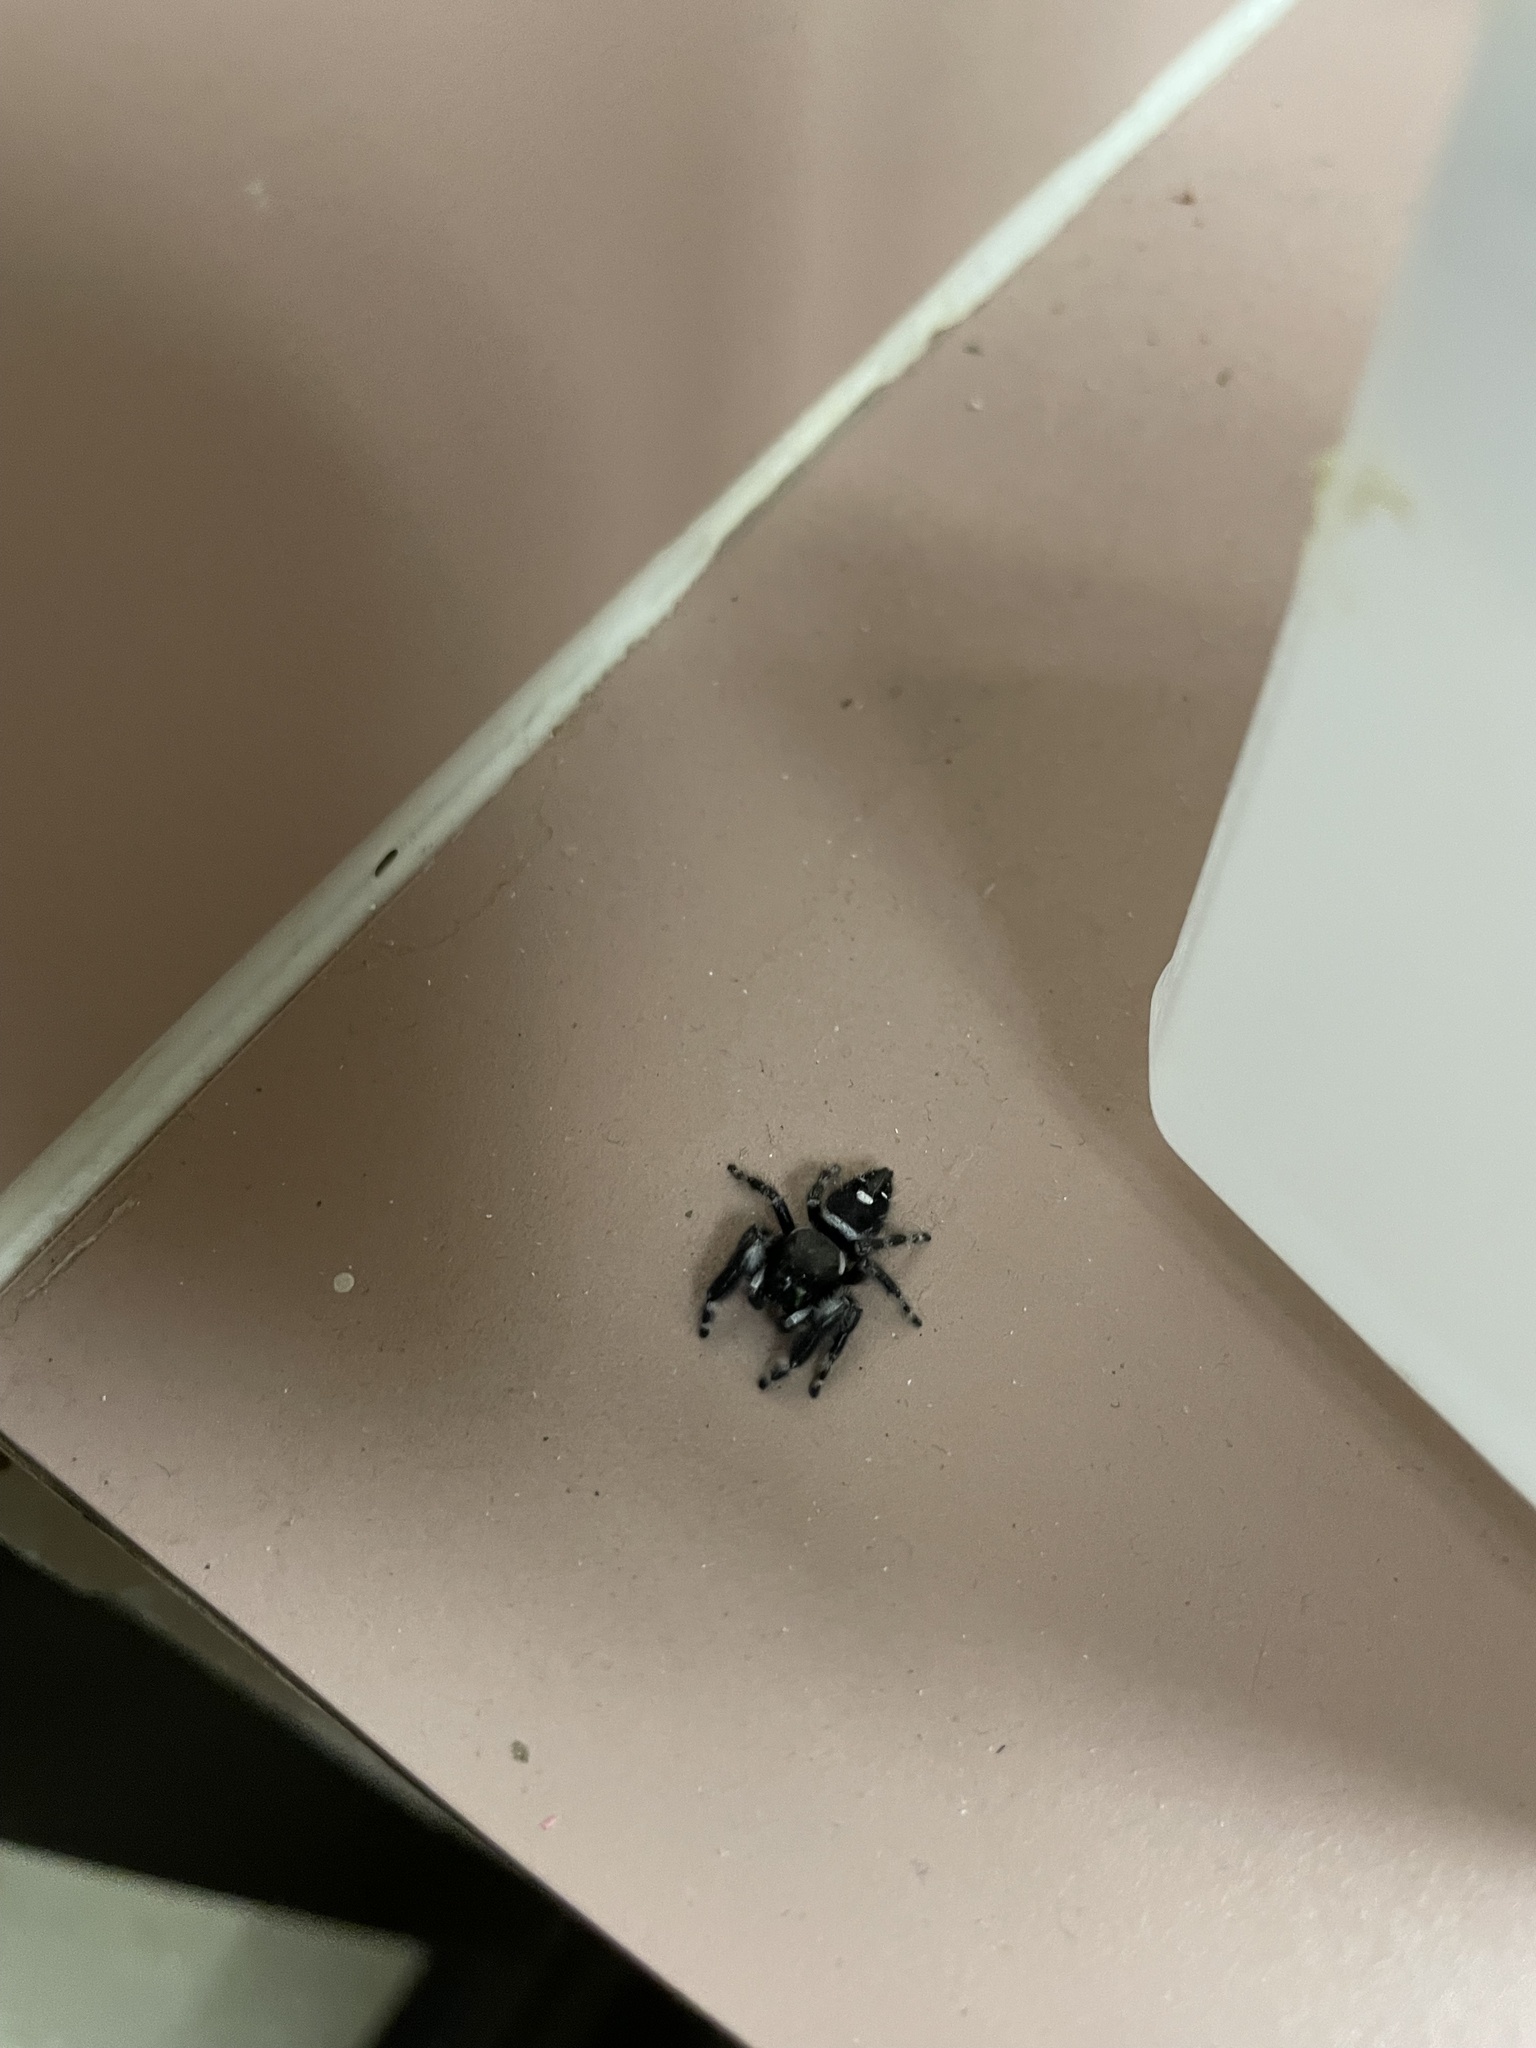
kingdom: Animalia
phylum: Arthropoda
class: Arachnida
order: Araneae
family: Salticidae
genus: Phidippus
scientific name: Phidippus audax
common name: Bold jumper
